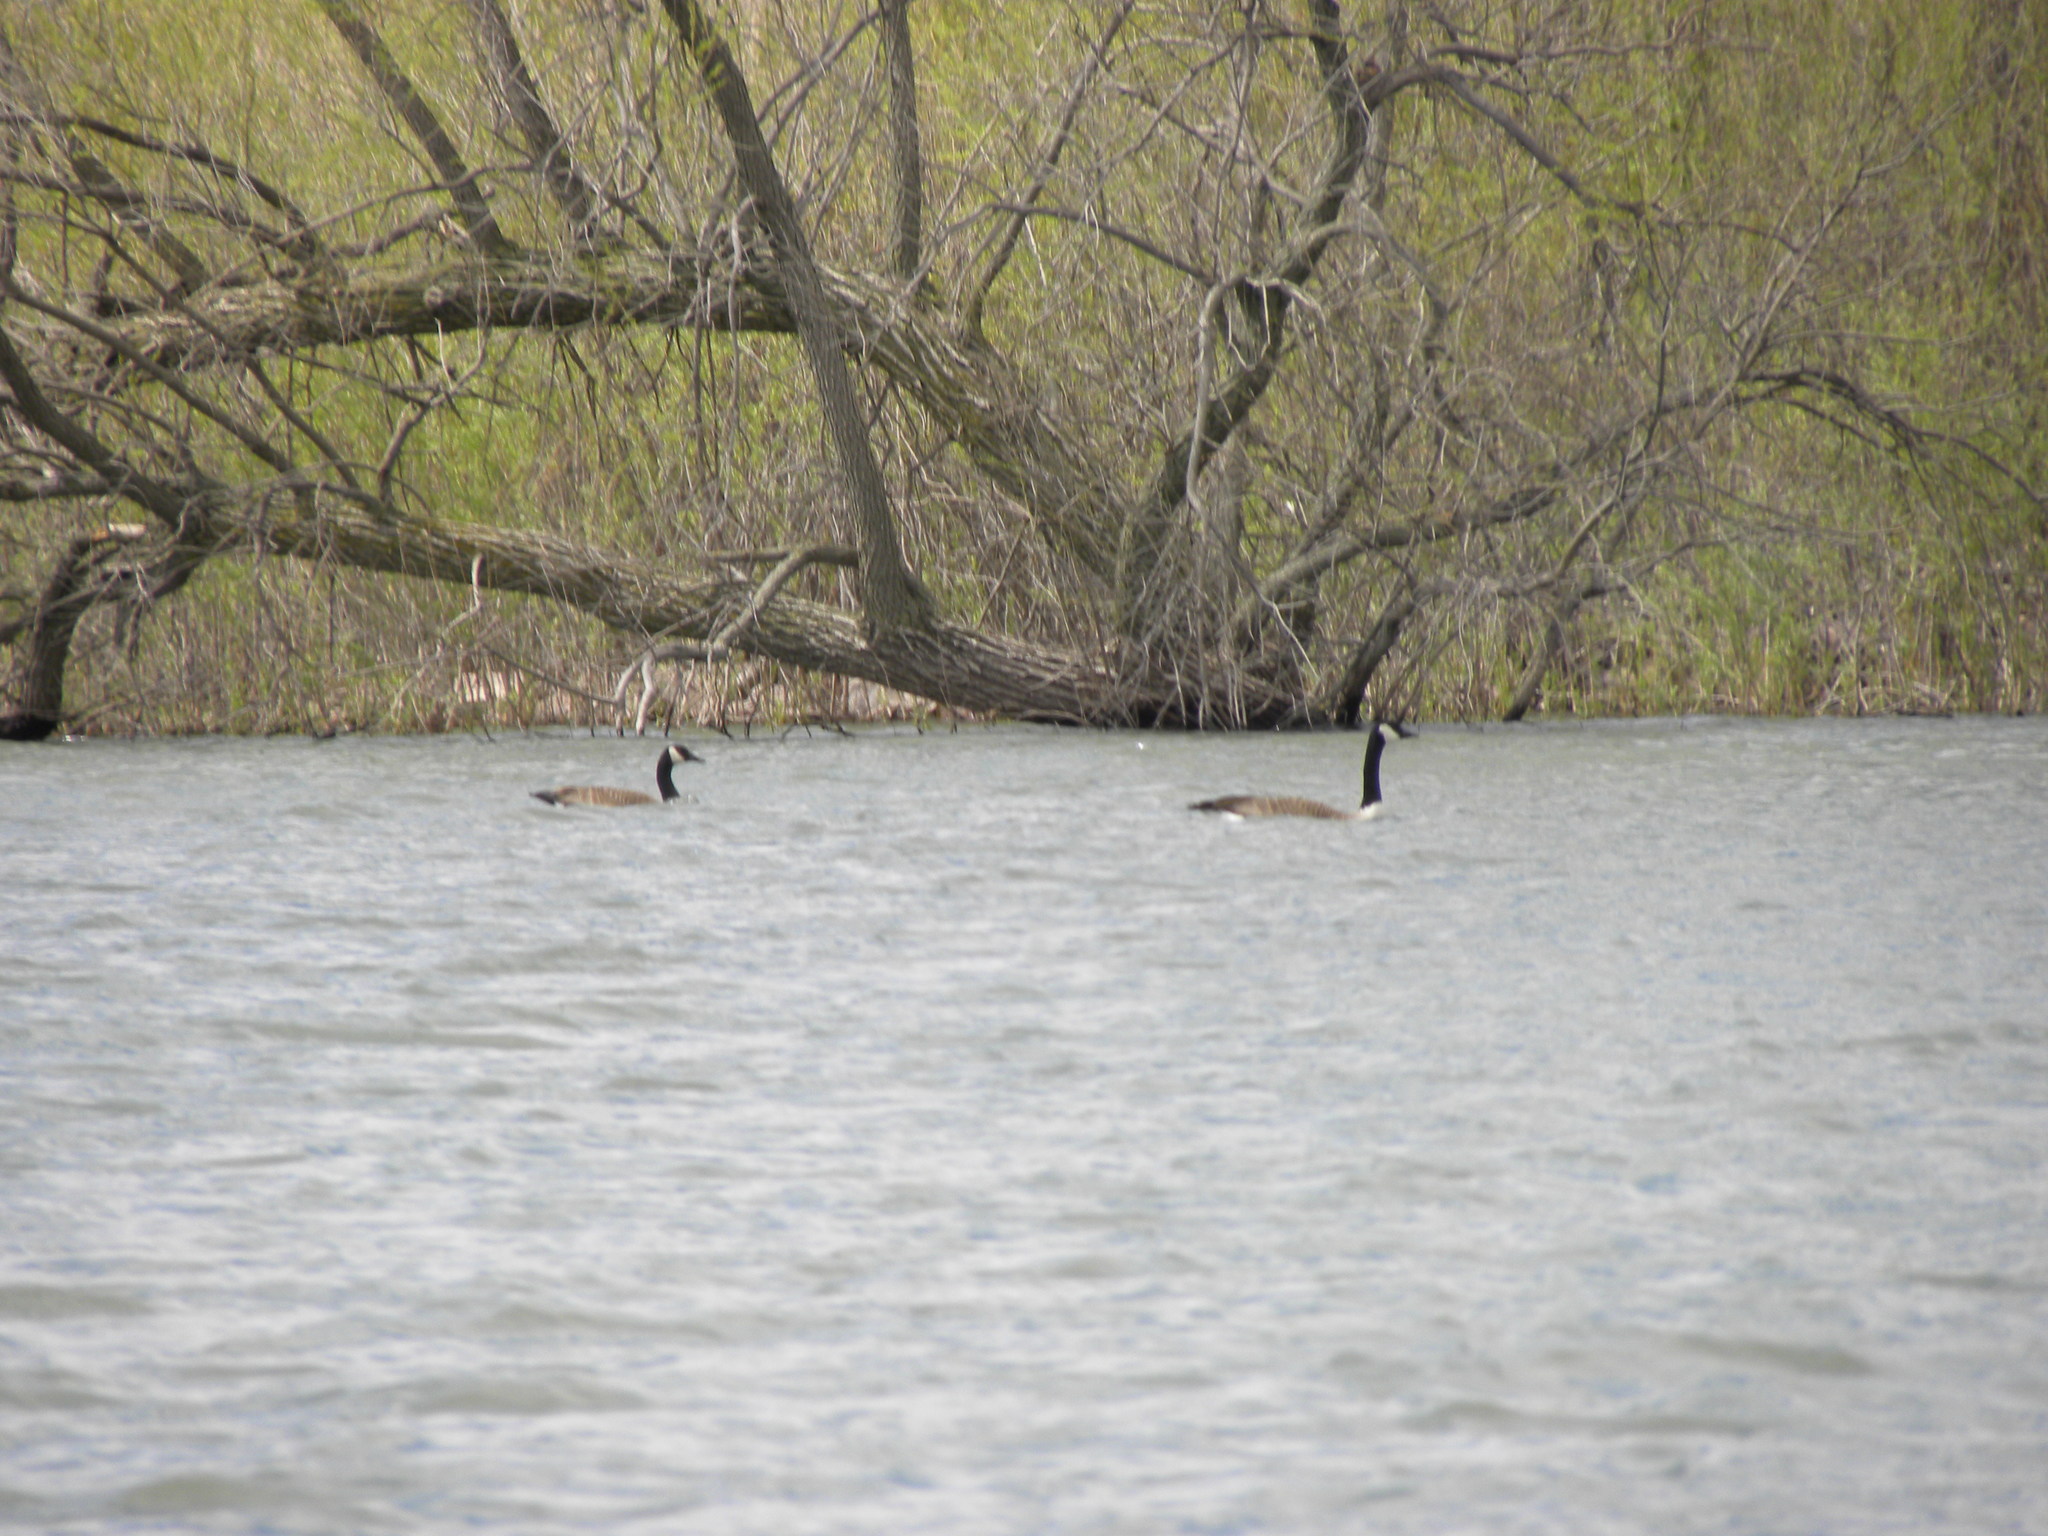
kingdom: Animalia
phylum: Chordata
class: Aves
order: Anseriformes
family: Anatidae
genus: Branta
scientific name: Branta canadensis
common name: Canada goose
